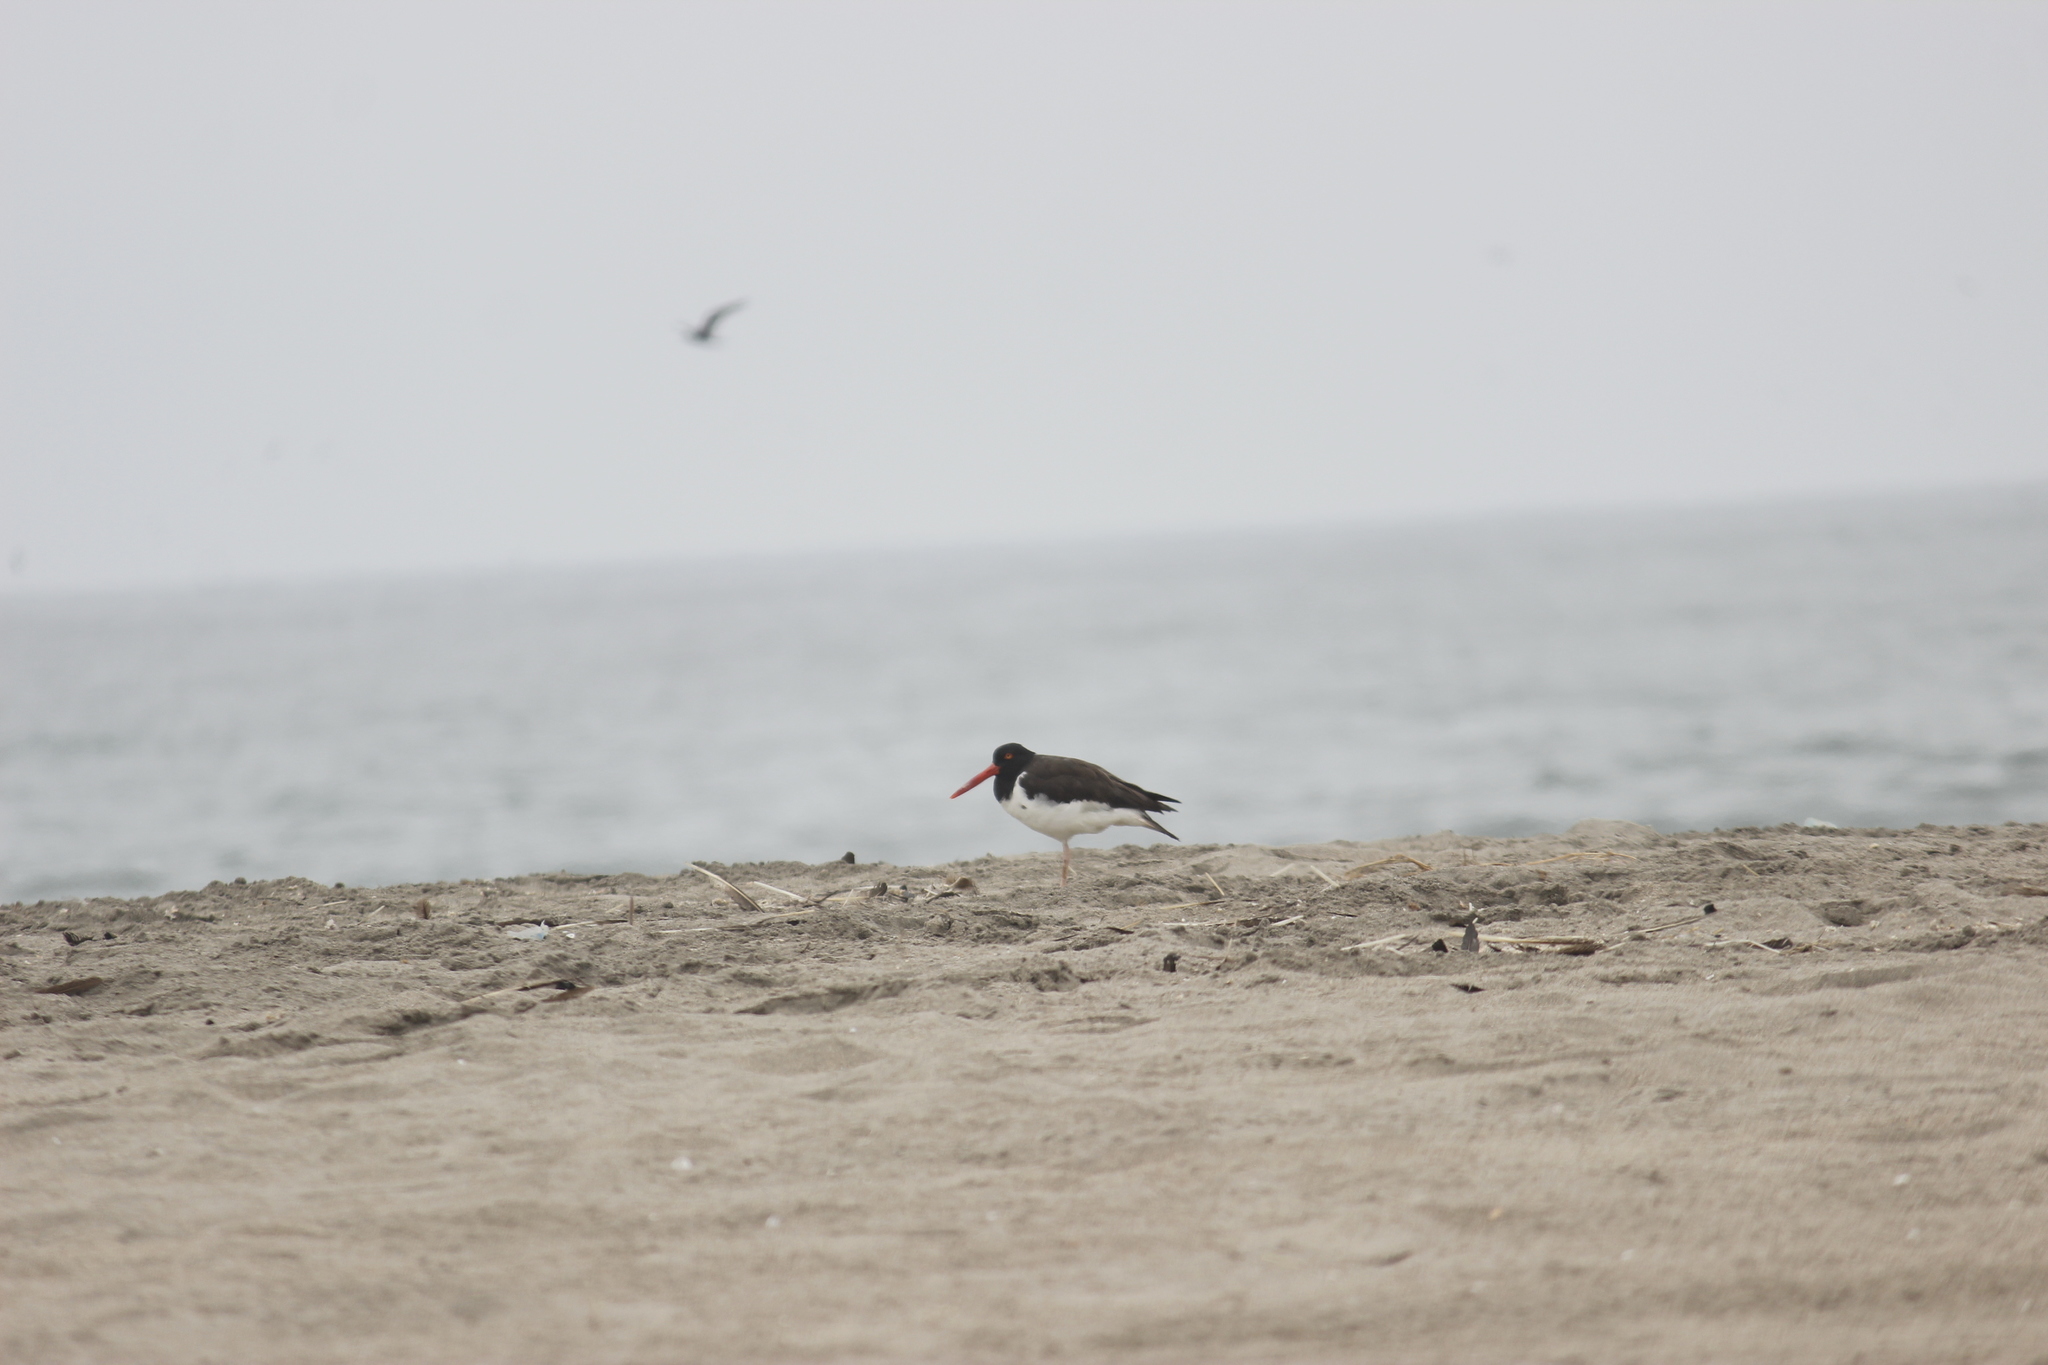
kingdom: Animalia
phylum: Chordata
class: Aves
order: Charadriiformes
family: Haematopodidae
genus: Haematopus
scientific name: Haematopus palliatus
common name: American oystercatcher
